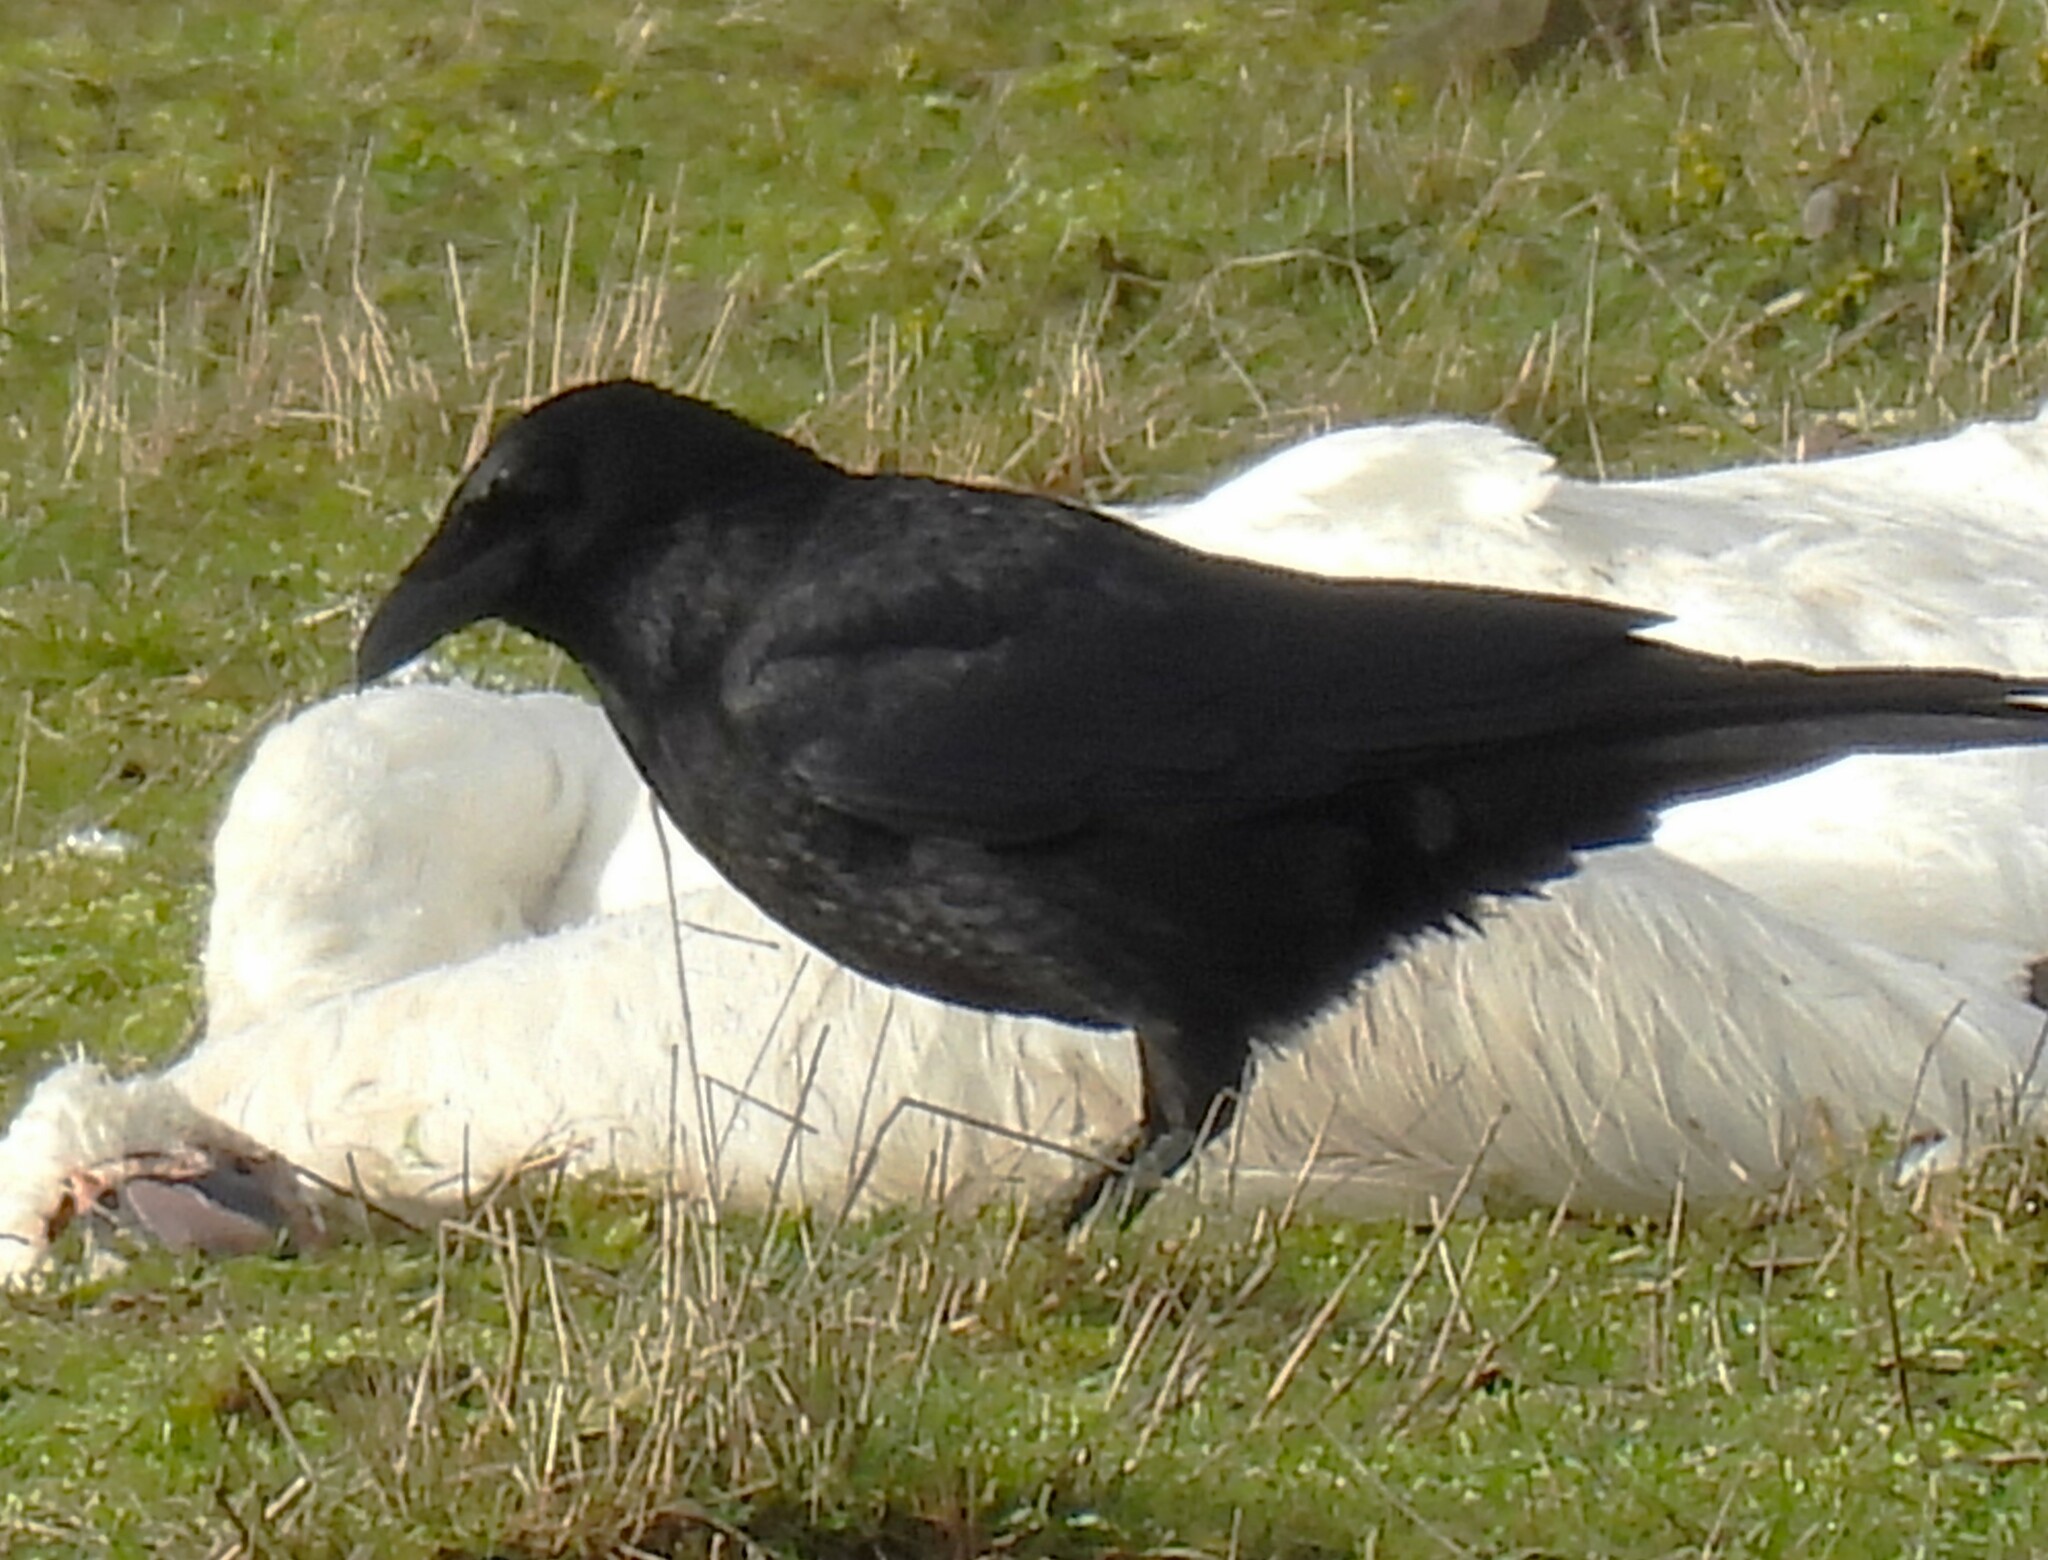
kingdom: Animalia
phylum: Chordata
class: Aves
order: Passeriformes
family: Corvidae
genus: Corvus
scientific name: Corvus corone
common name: Carrion crow
